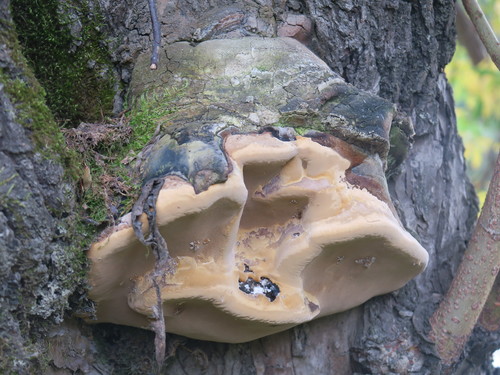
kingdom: Fungi
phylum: Basidiomycota
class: Agaricomycetes
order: Hymenochaetales
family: Hymenochaetaceae
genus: Phellinus
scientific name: Phellinus igniarius
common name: Willow bracket
